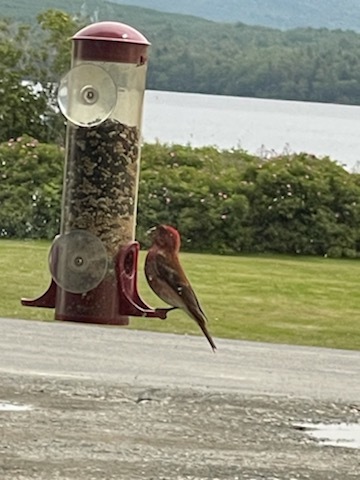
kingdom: Animalia
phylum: Chordata
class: Aves
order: Passeriformes
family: Fringillidae
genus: Haemorhous
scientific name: Haemorhous purpureus
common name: Purple finch
